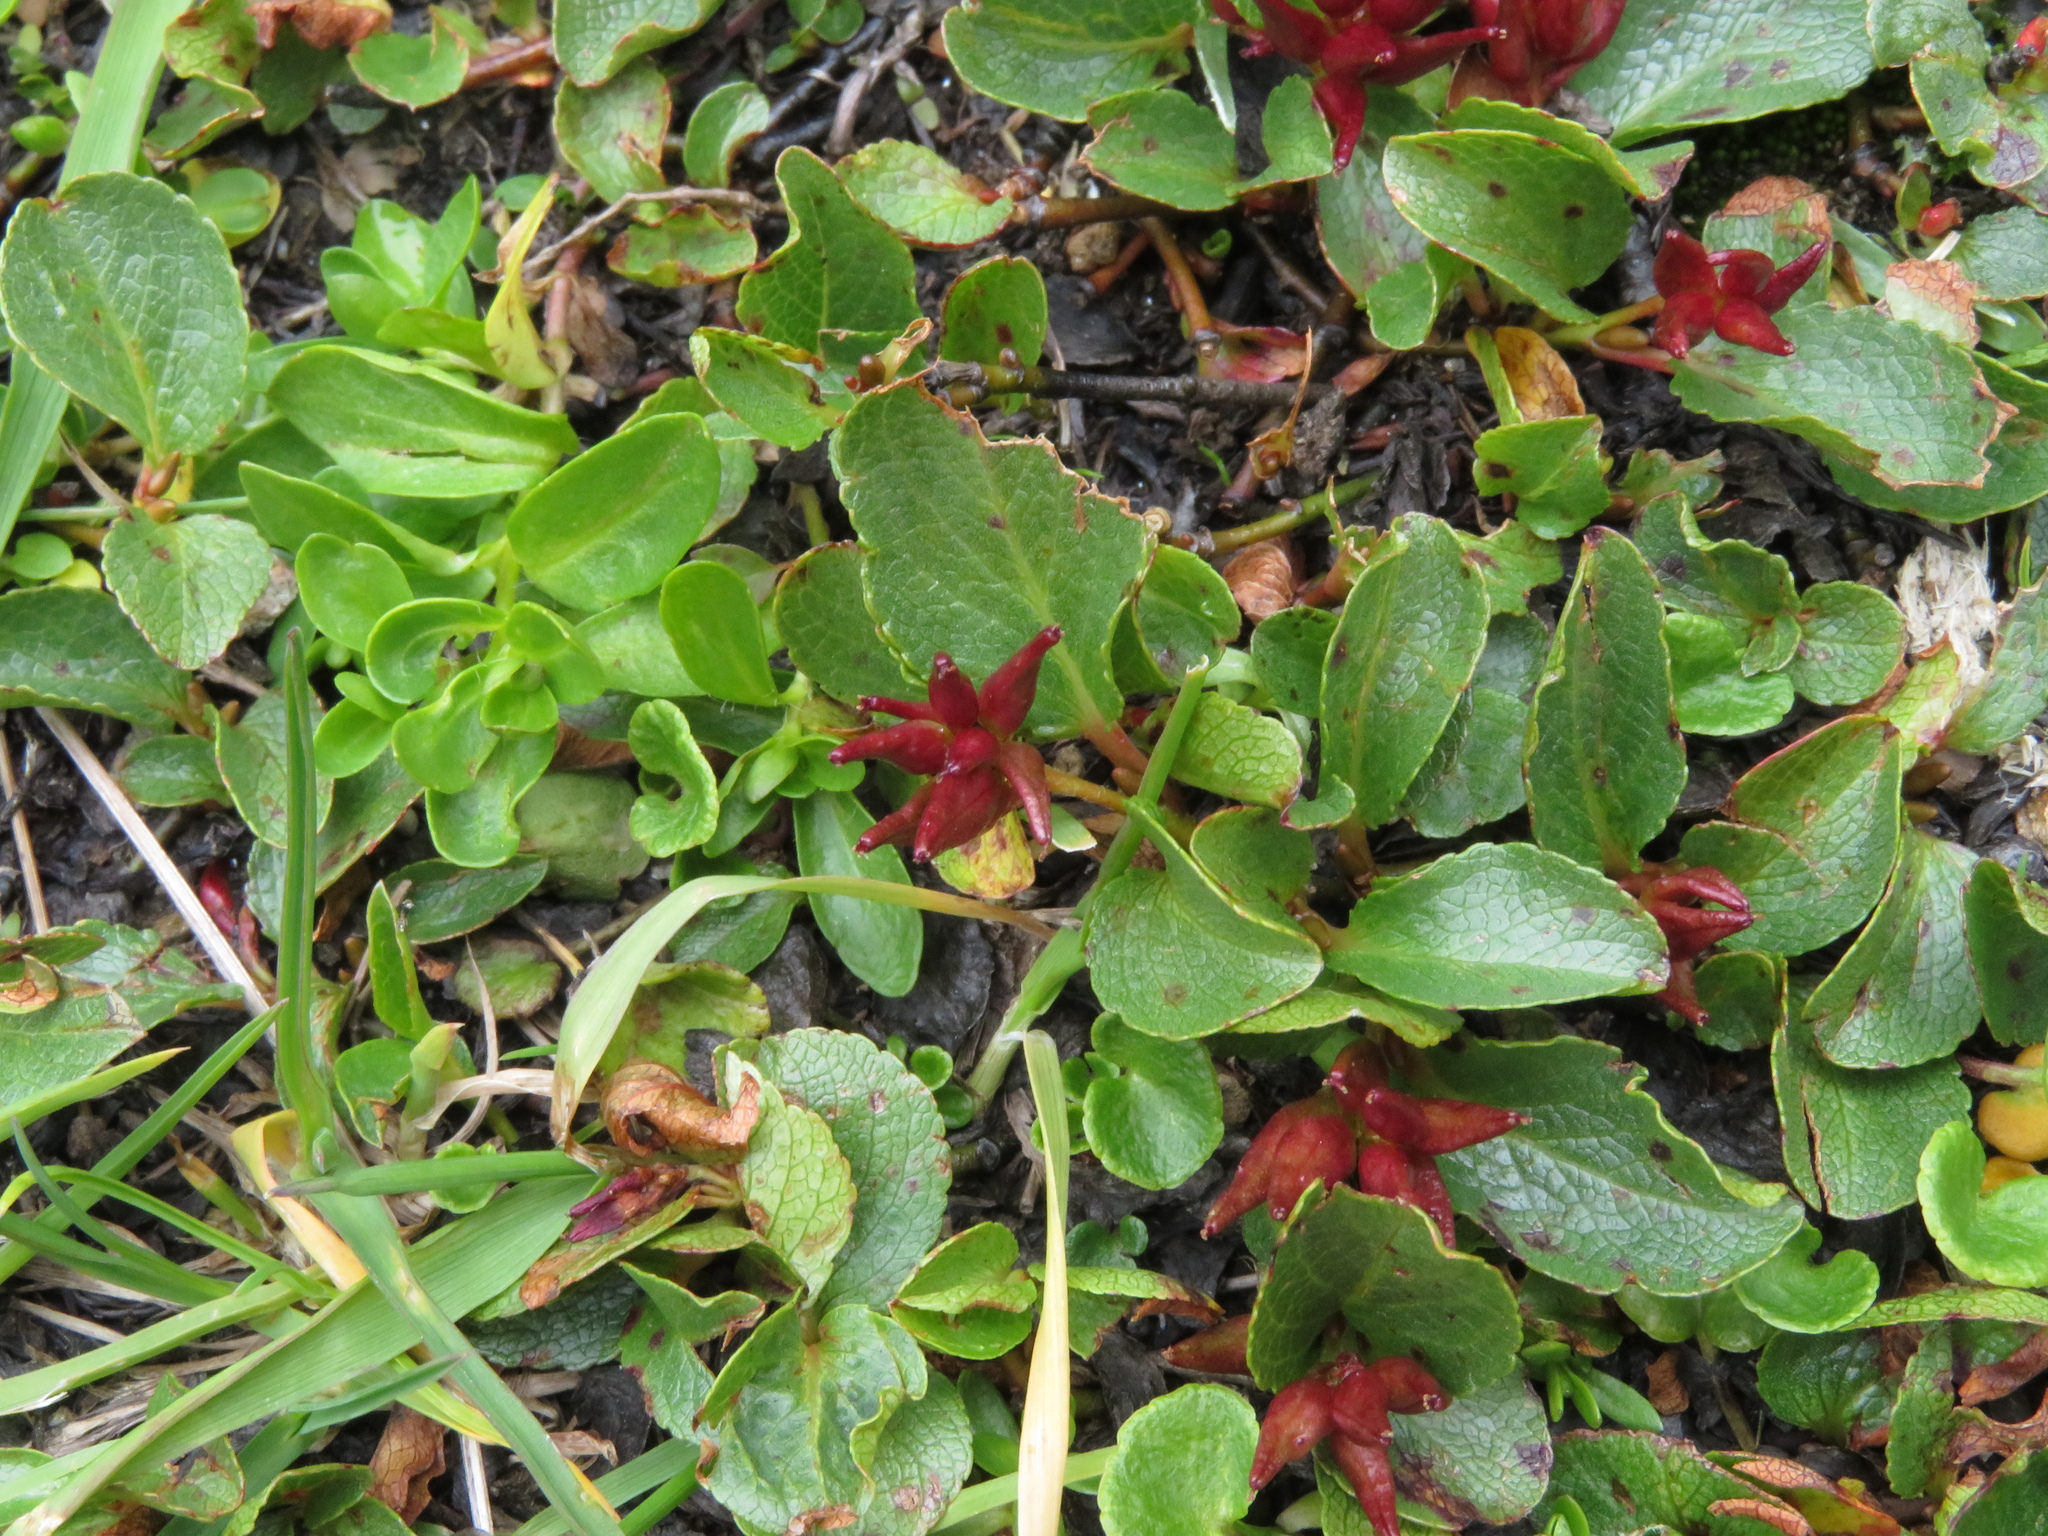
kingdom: Plantae
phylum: Tracheophyta
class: Magnoliopsida
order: Malpighiales
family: Salicaceae
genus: Salix
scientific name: Salix herbacea
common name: Dwarf willow
